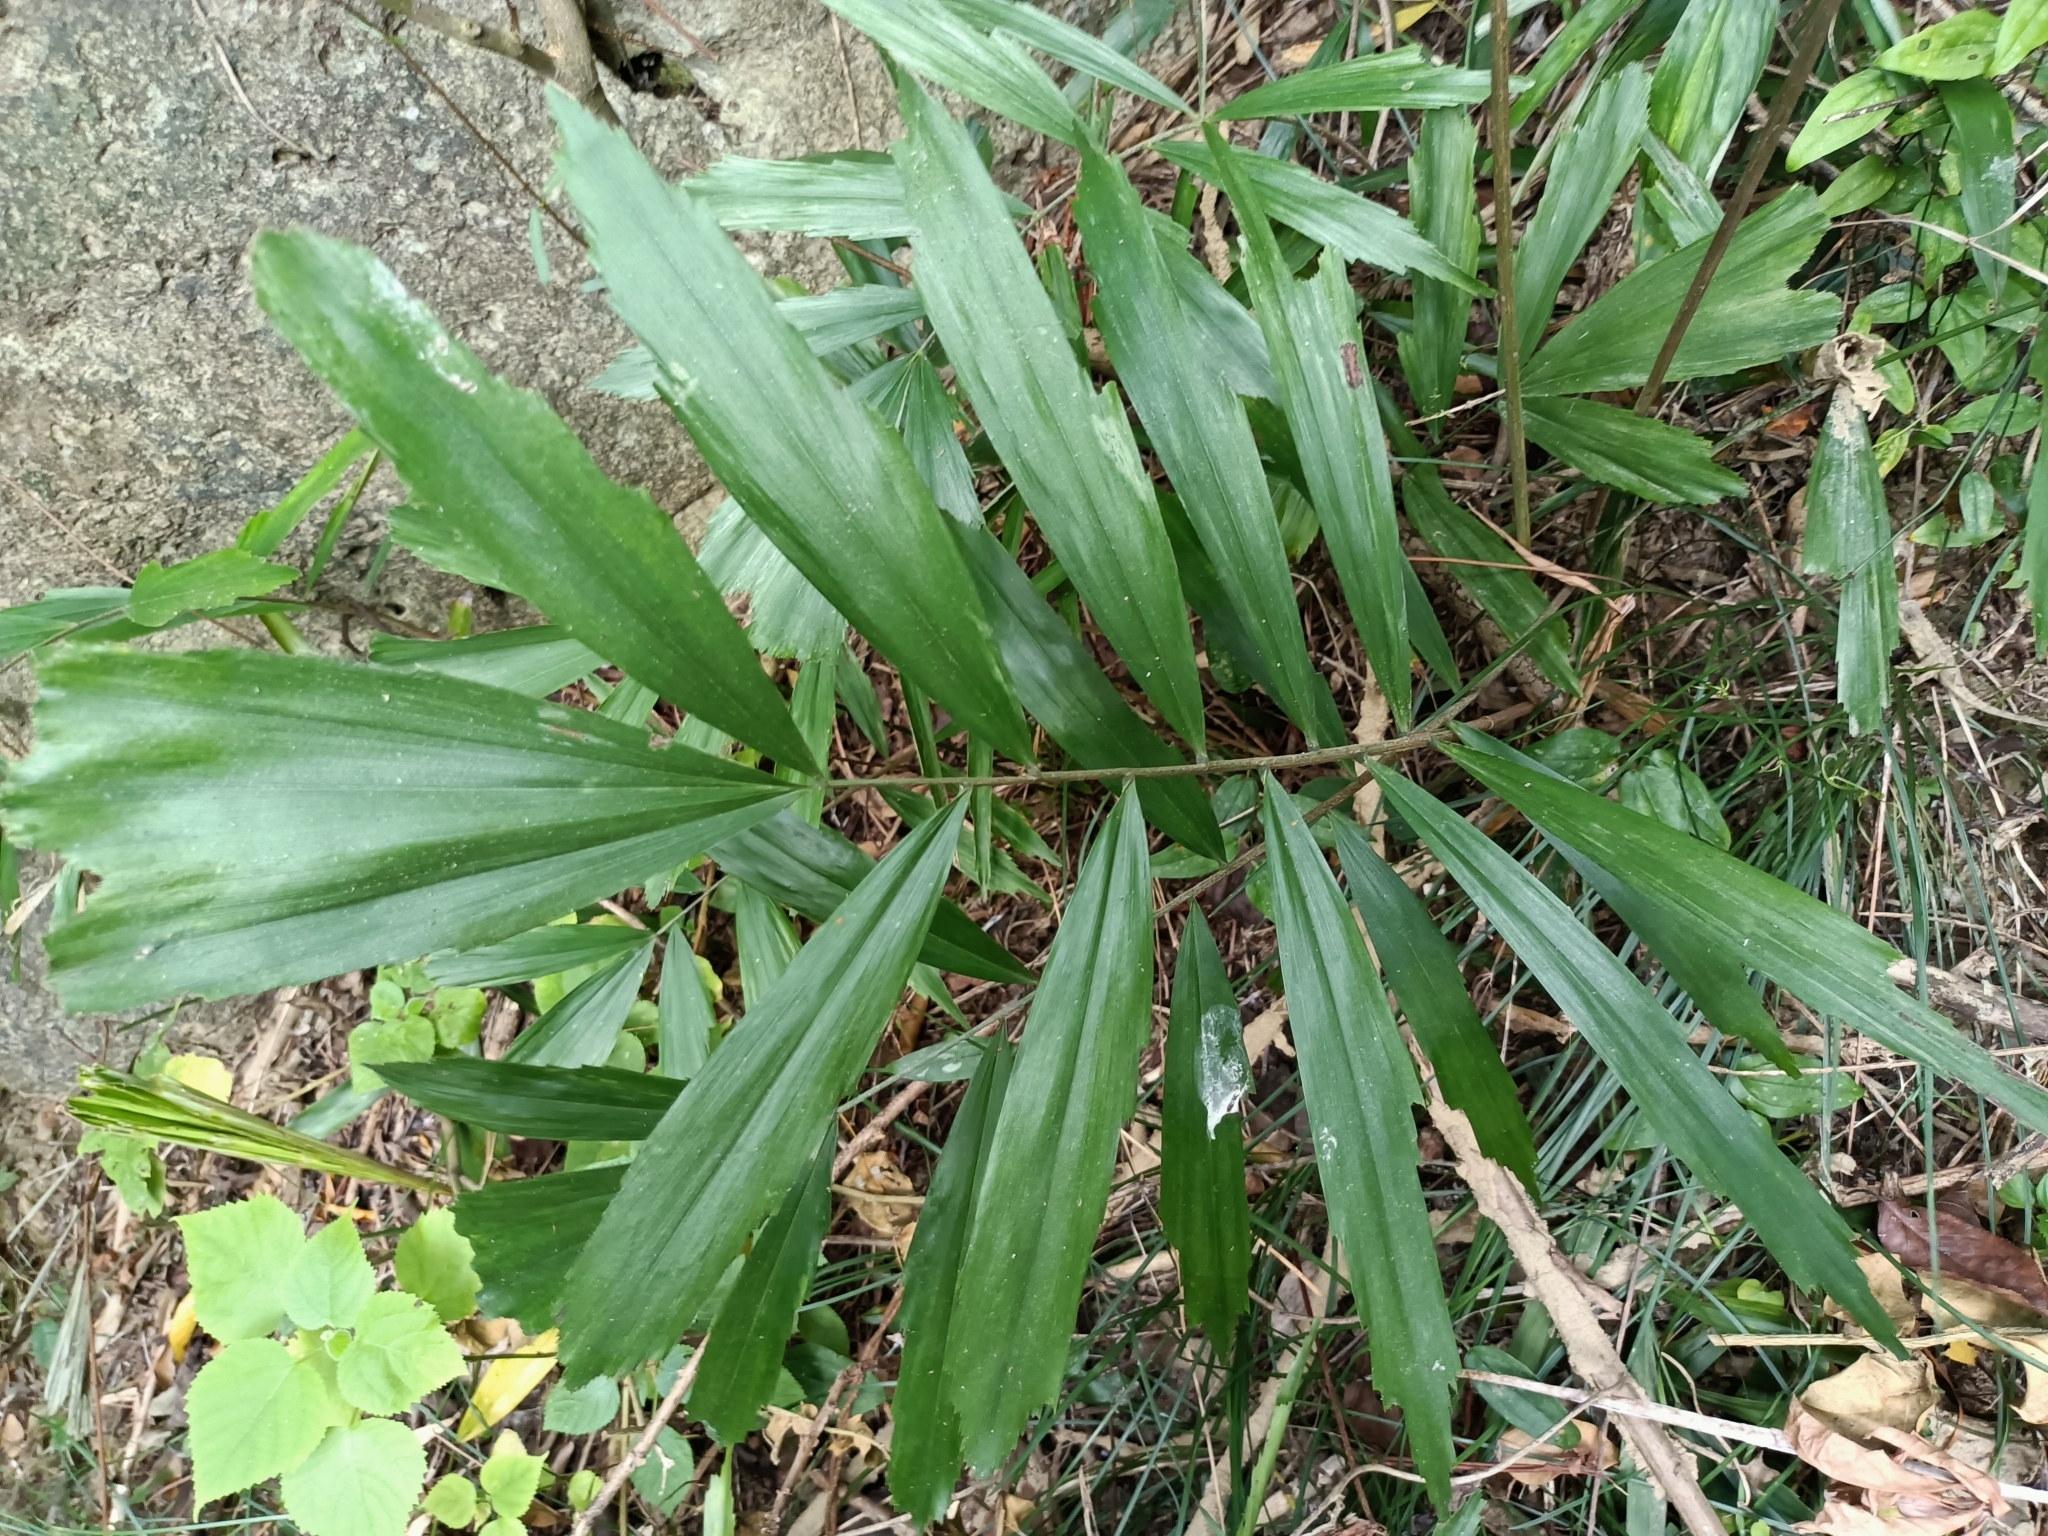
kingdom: Plantae
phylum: Tracheophyta
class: Liliopsida
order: Arecales
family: Arecaceae
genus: Arenga
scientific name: Arenga engleri
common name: Formosan sugar palm
